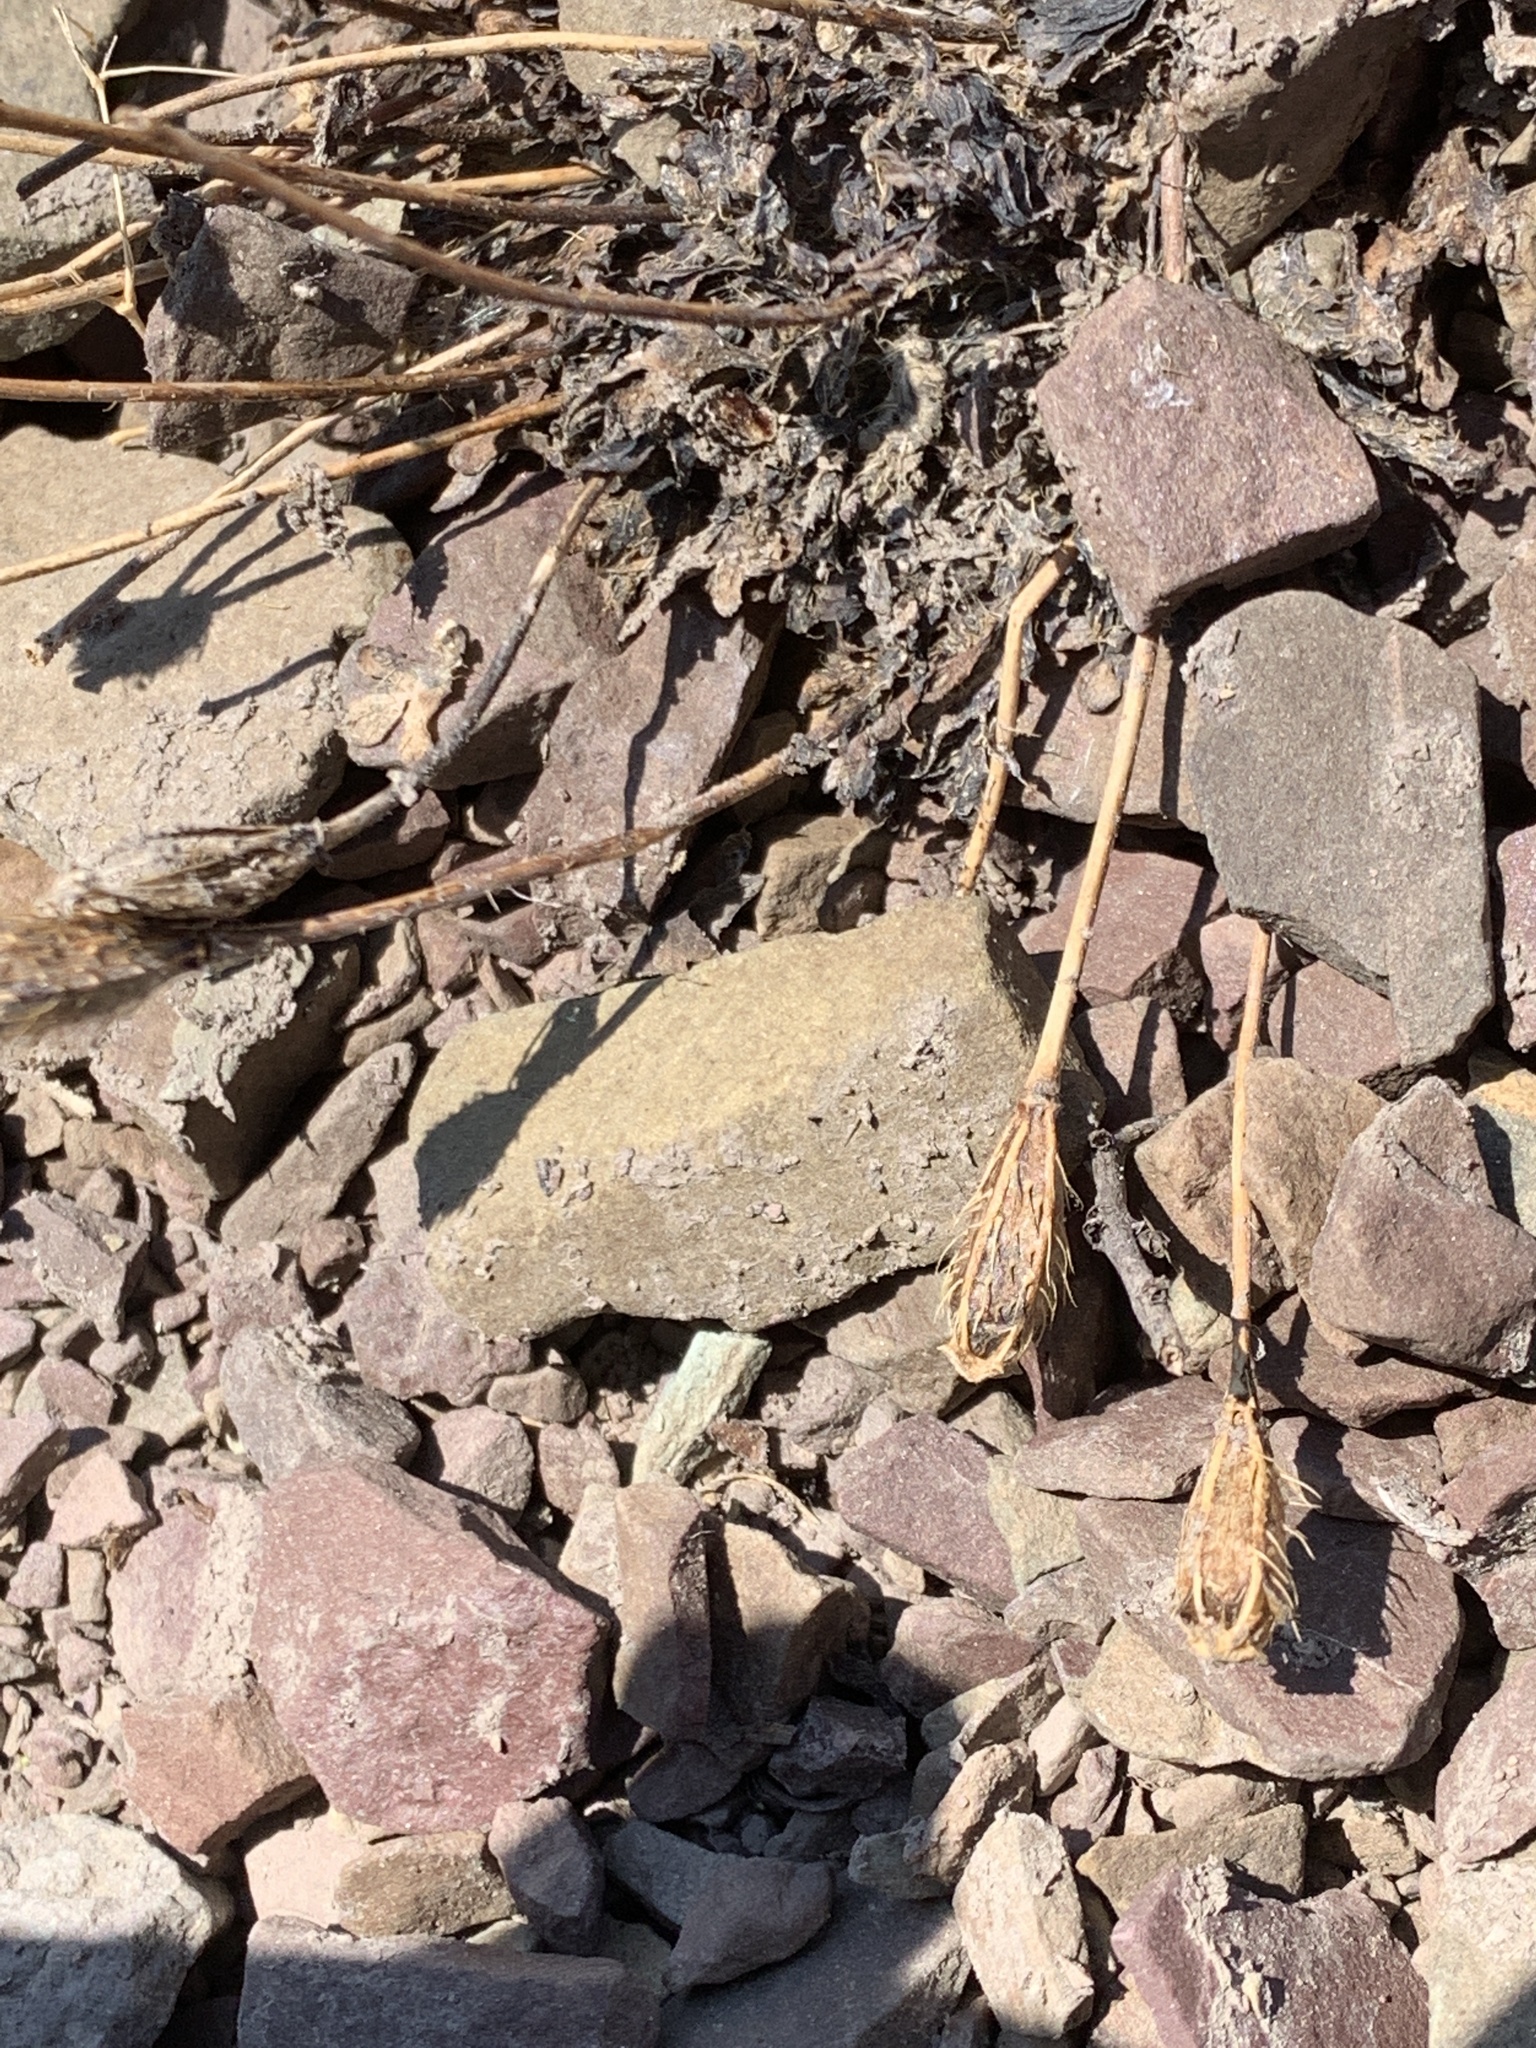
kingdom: Plantae
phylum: Tracheophyta
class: Magnoliopsida
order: Ranunculales
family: Papaveraceae
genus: Papaver
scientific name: Papaver pygmaeum
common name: Alpine glacier poppy
